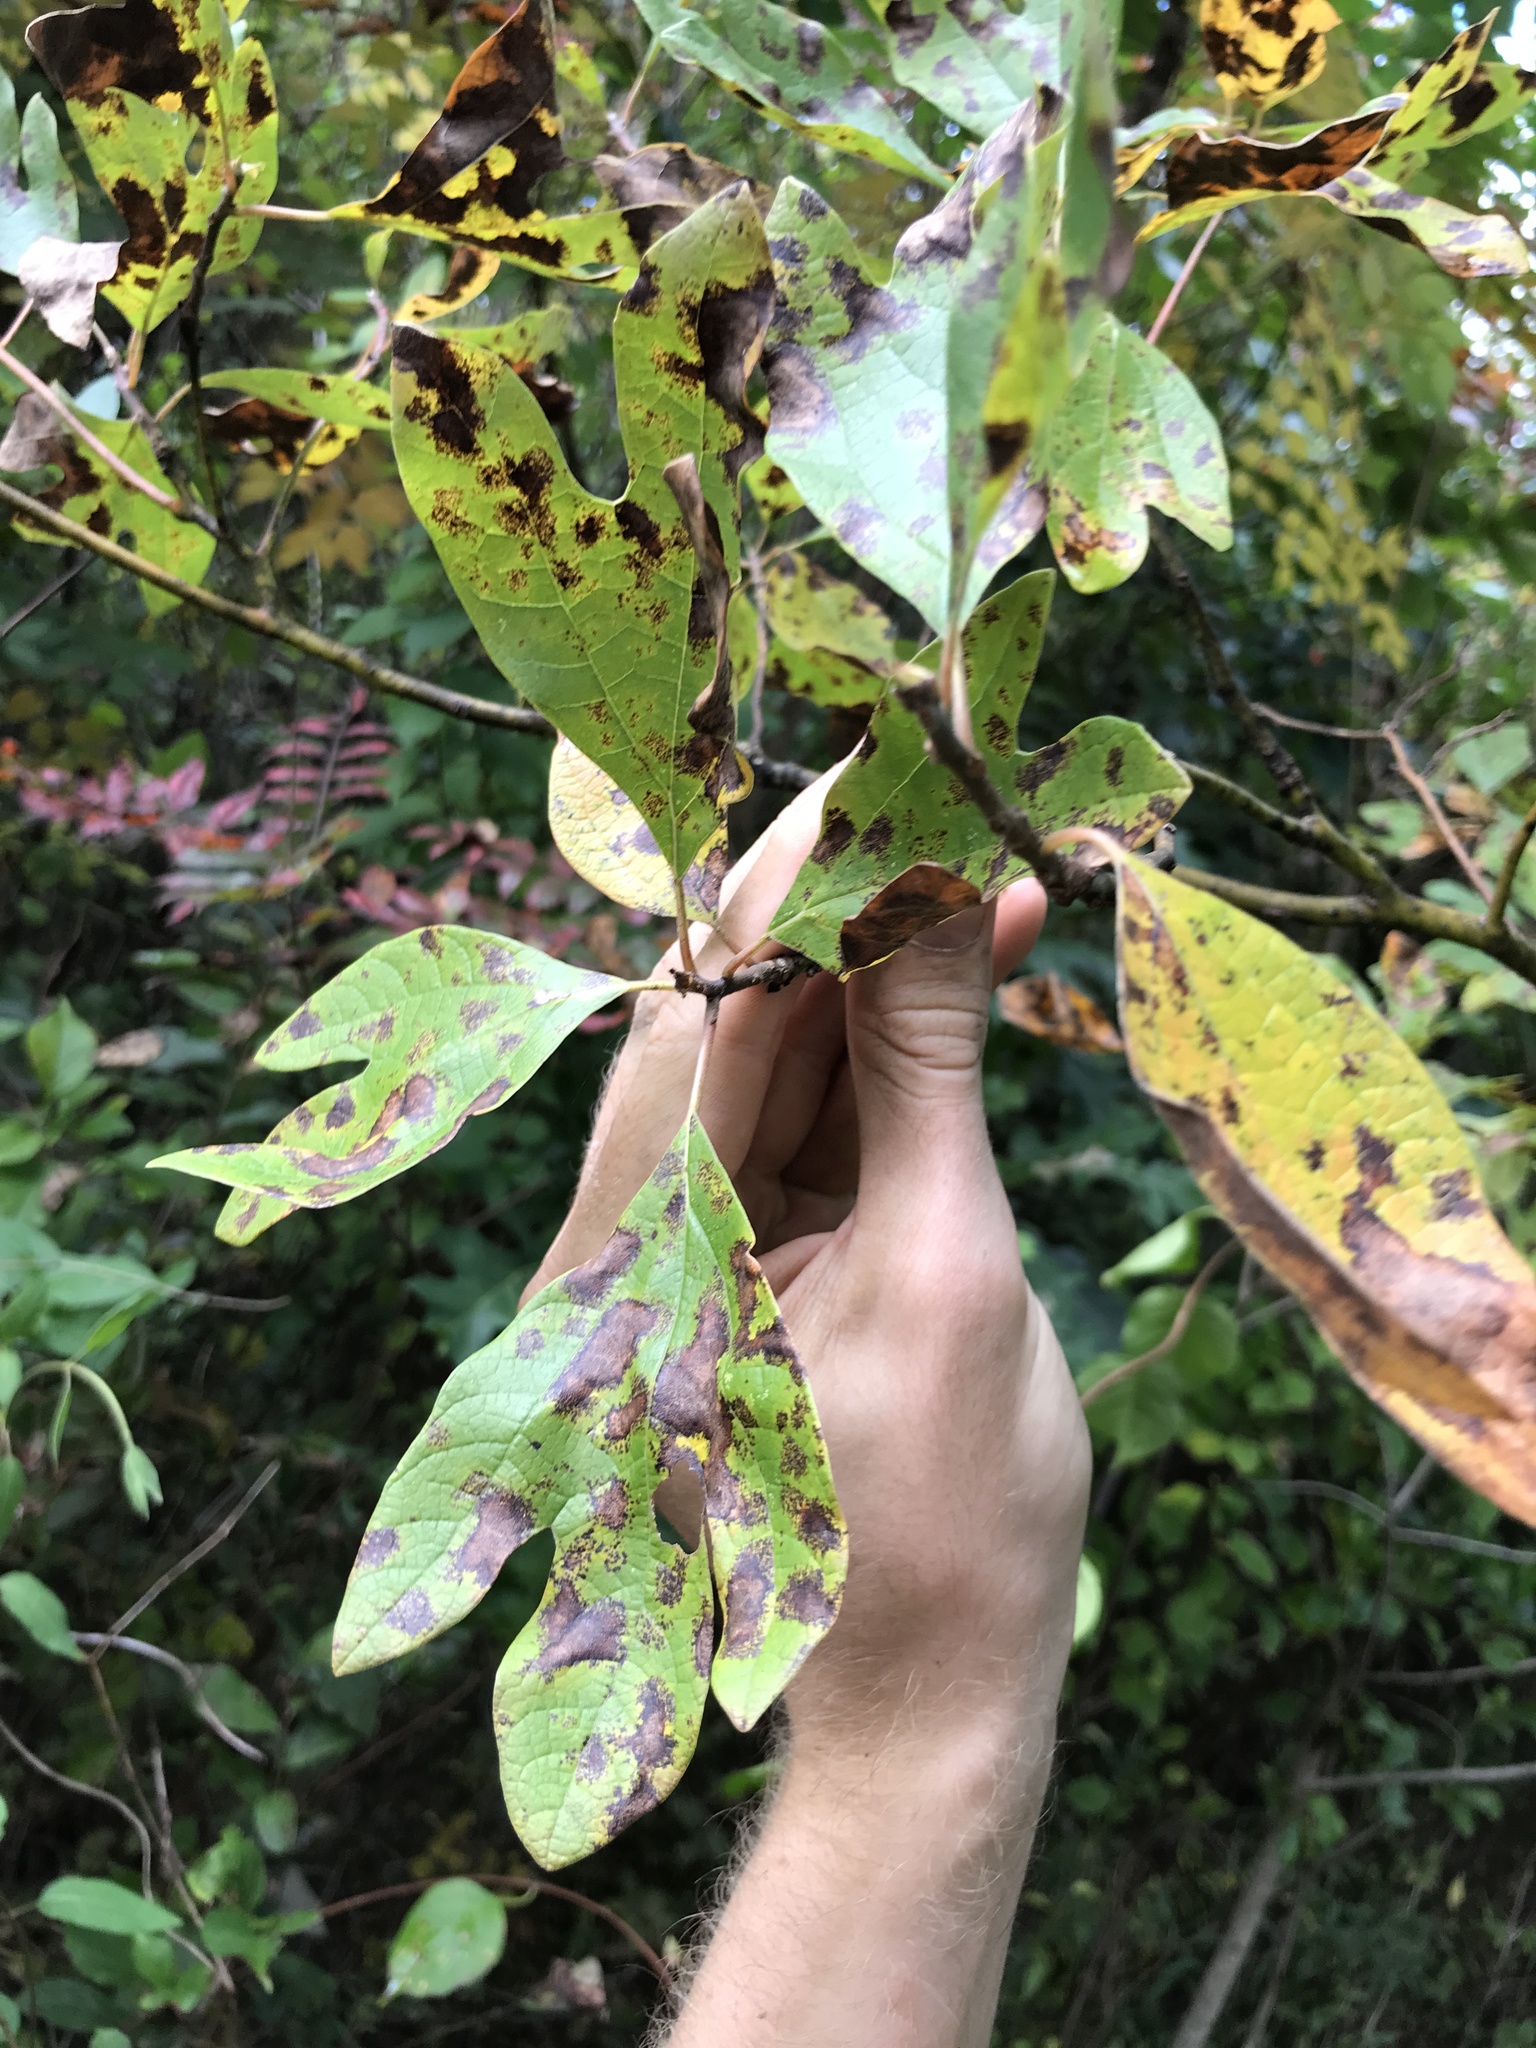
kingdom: Plantae
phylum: Tracheophyta
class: Magnoliopsida
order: Laurales
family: Lauraceae
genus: Sassafras
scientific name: Sassafras albidum
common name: Sassafras
